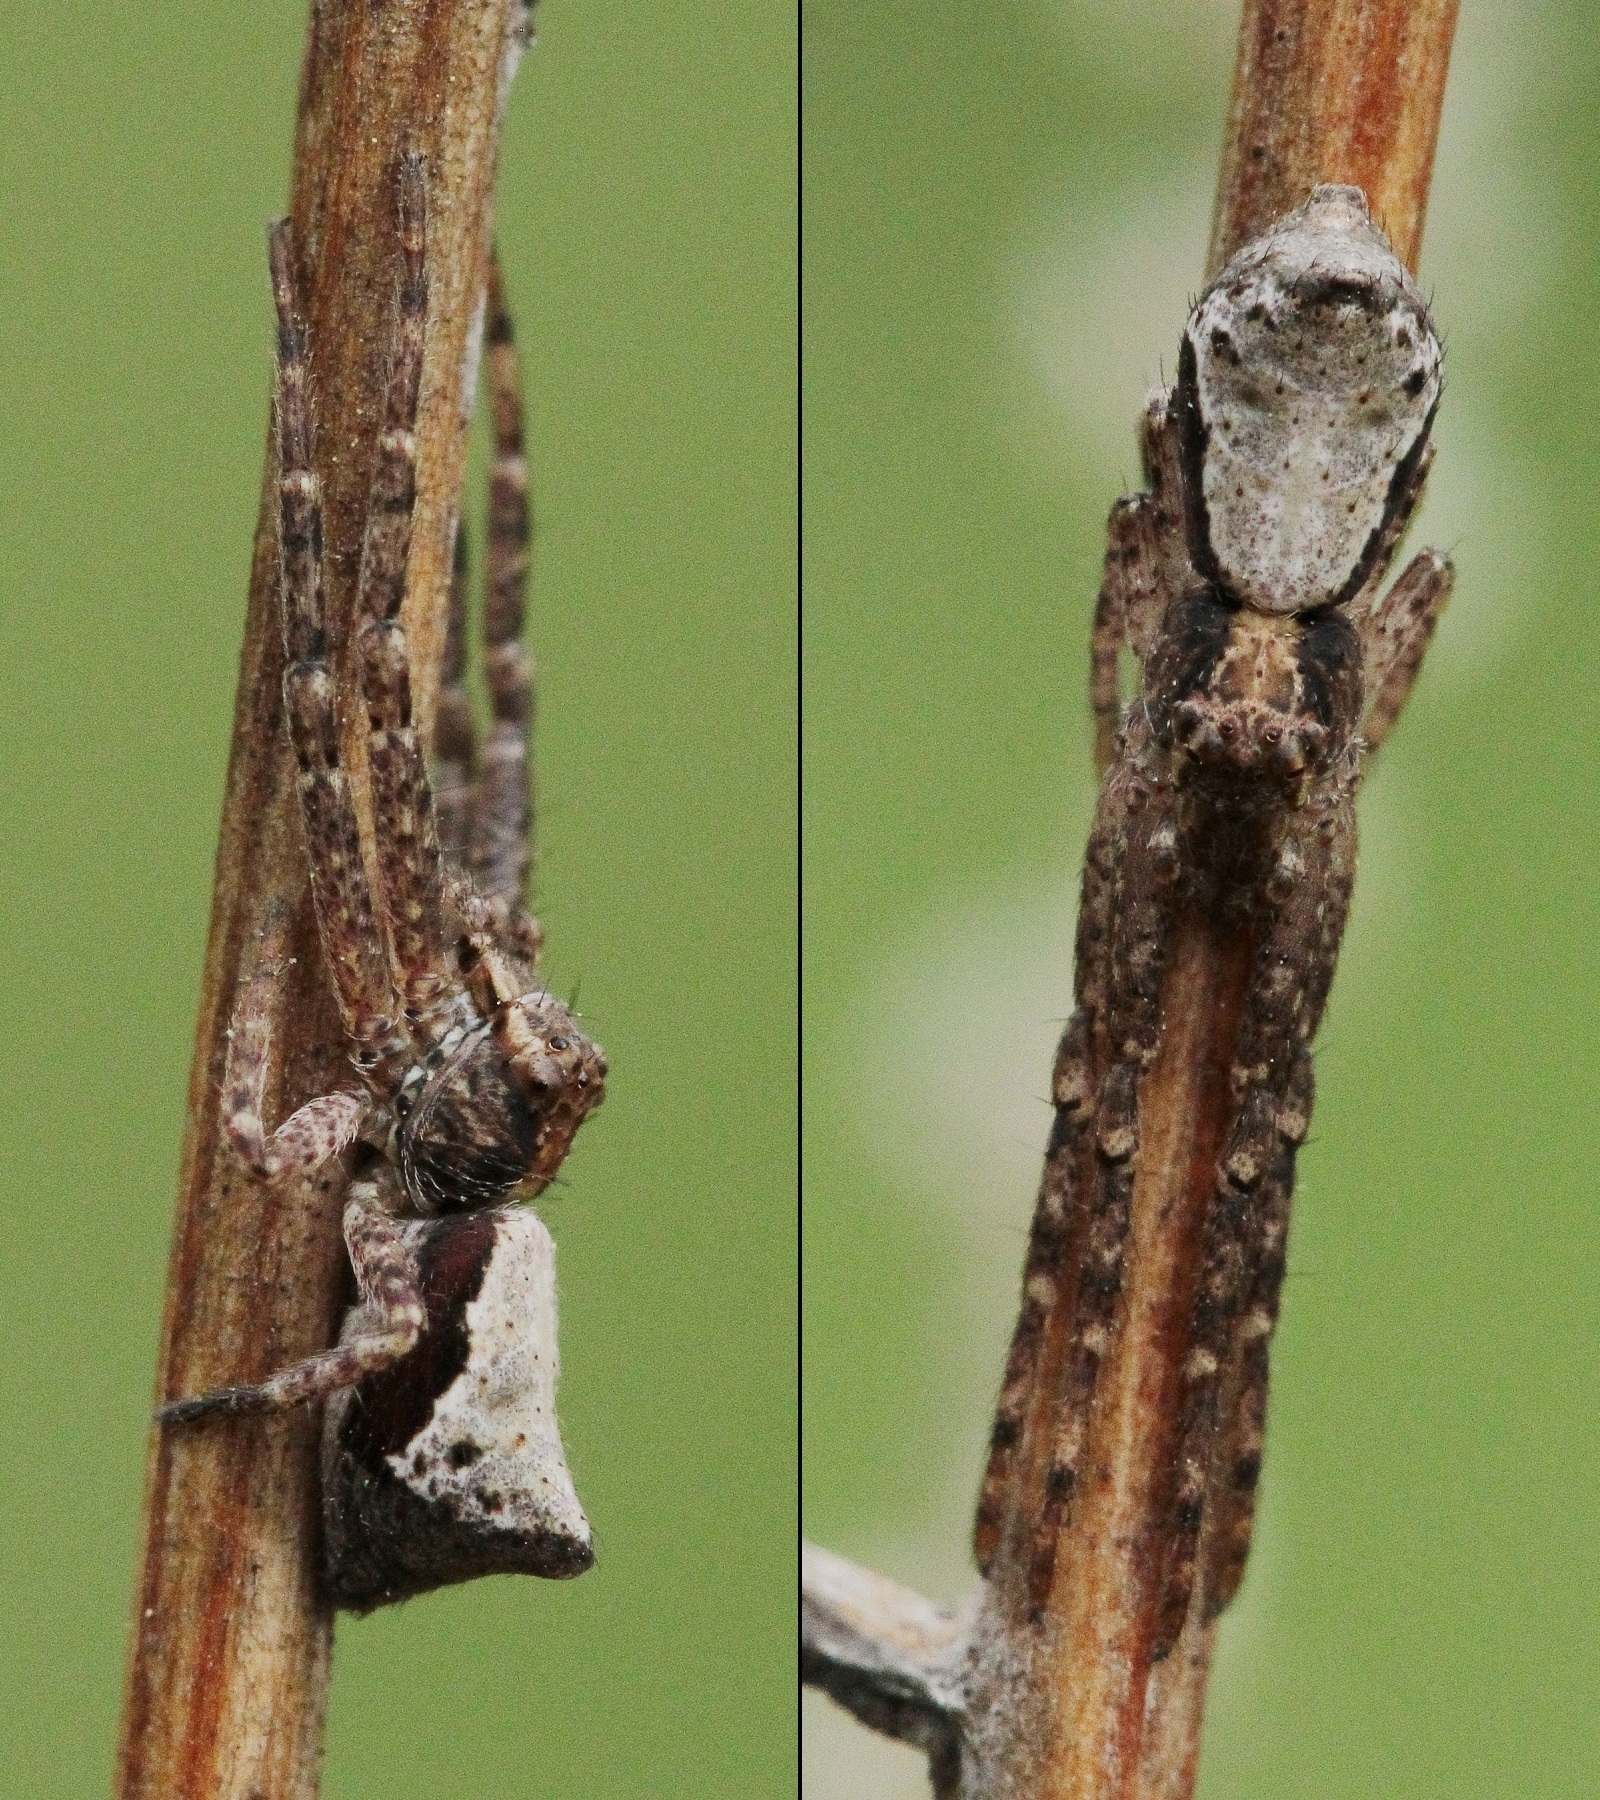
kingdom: Animalia
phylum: Arthropoda
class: Arachnida
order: Araneae
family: Thomisidae
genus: Tmarus
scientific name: Tmarus
